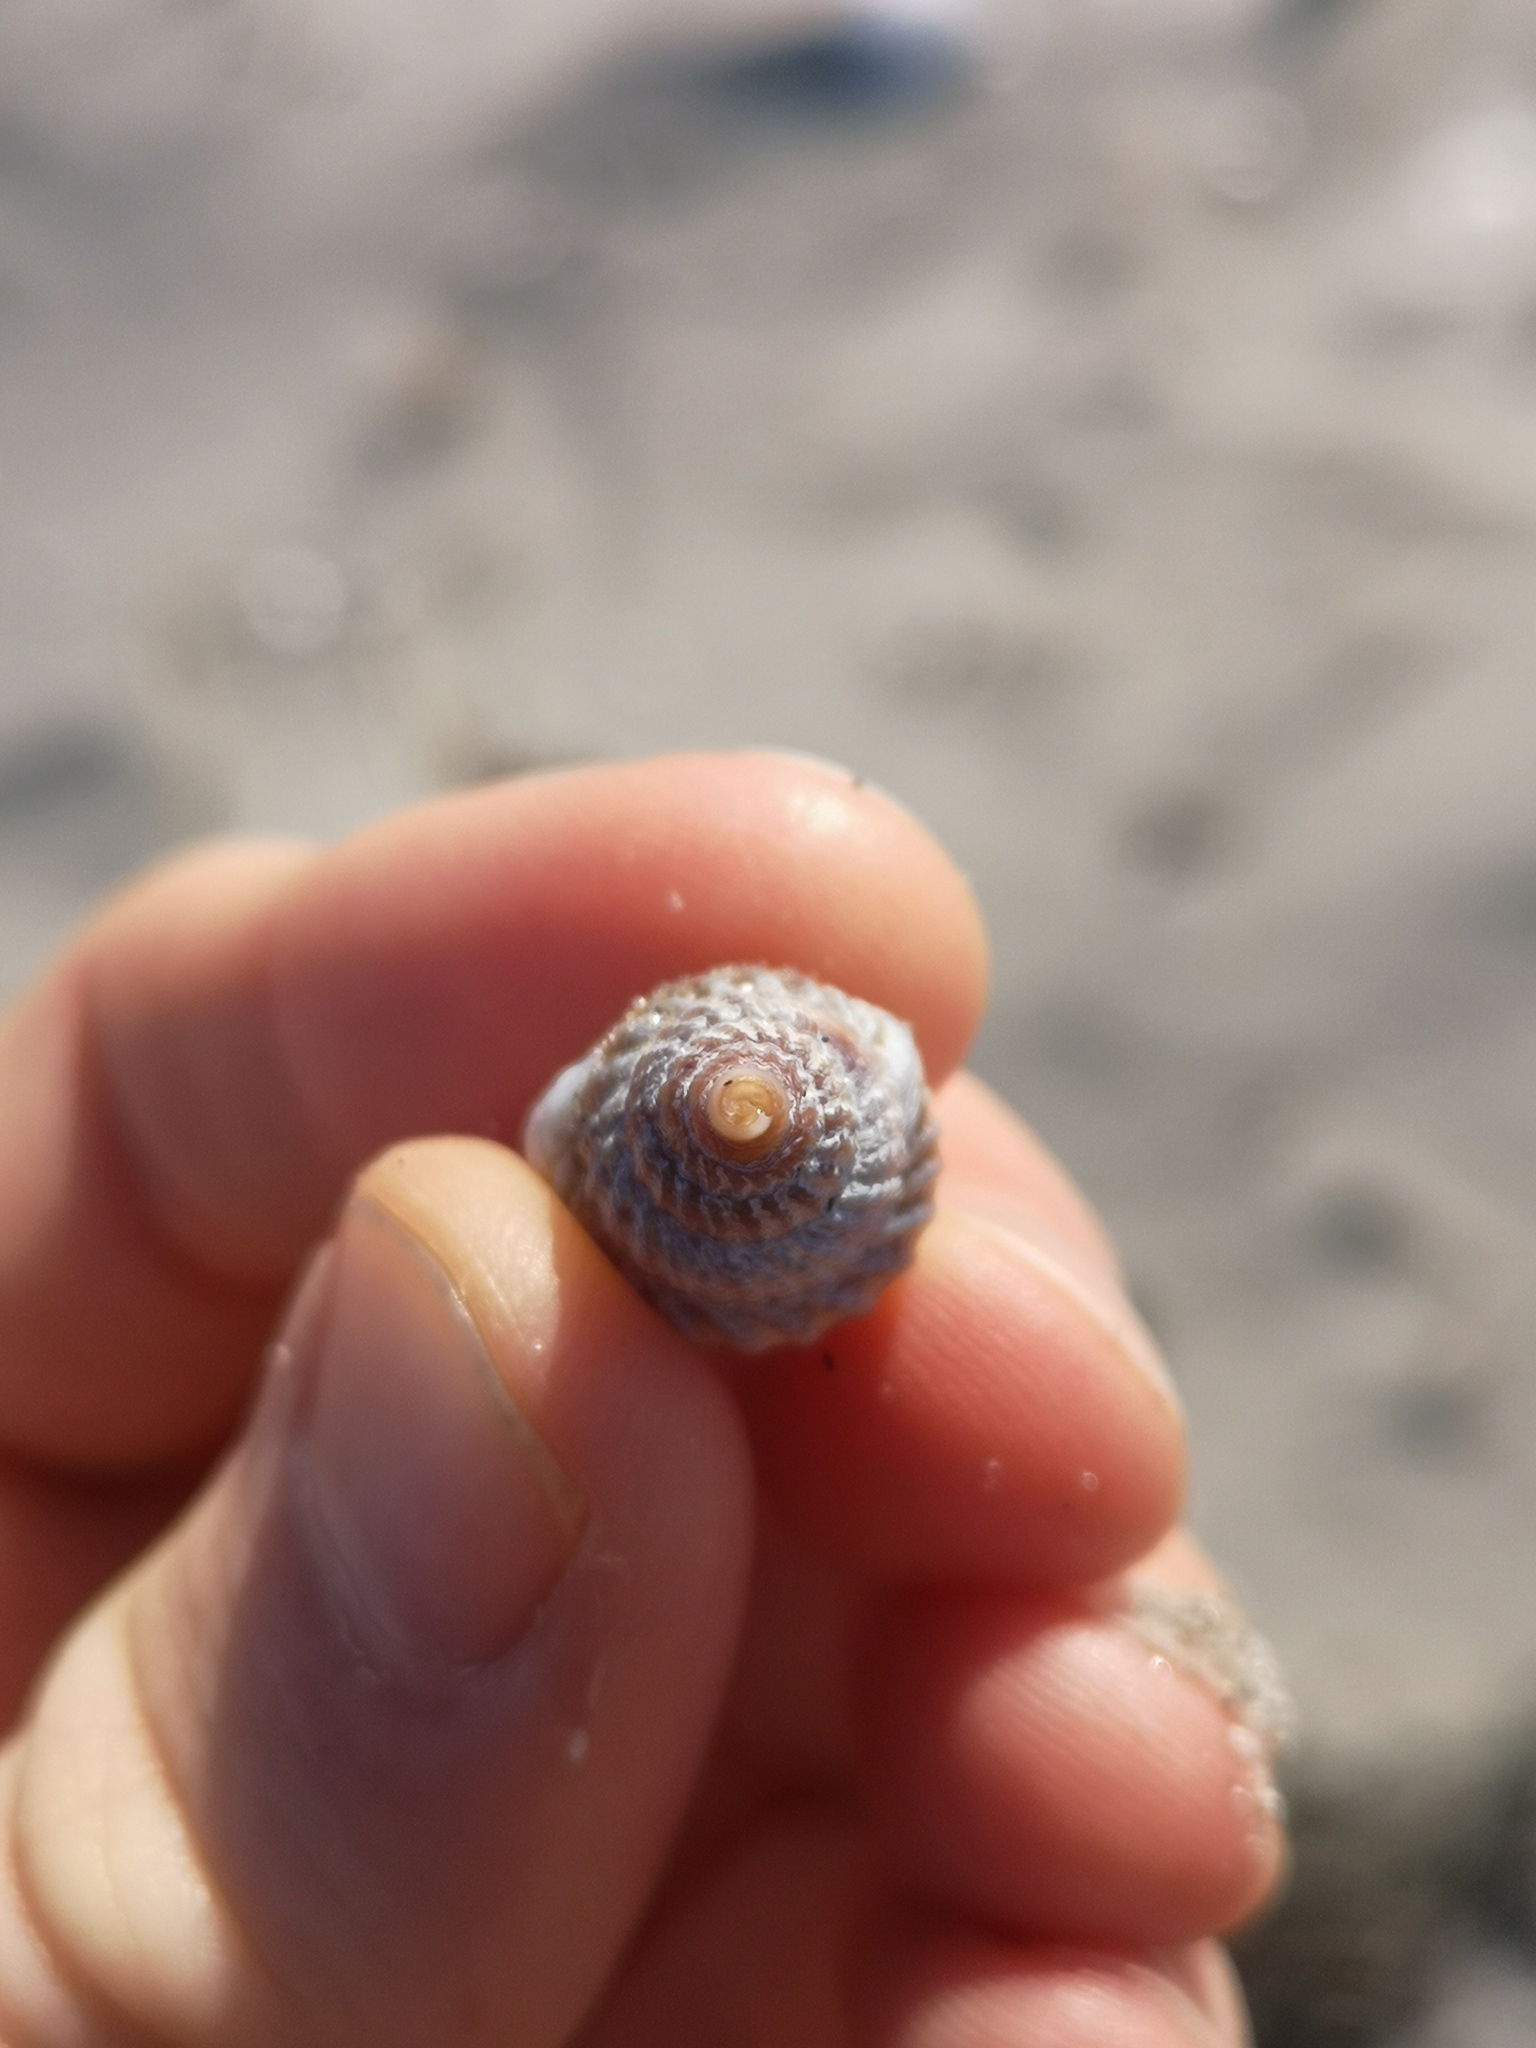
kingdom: Animalia
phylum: Mollusca
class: Gastropoda
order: Neogastropoda
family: Nassariidae
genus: Tritia
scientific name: Tritia nitida
